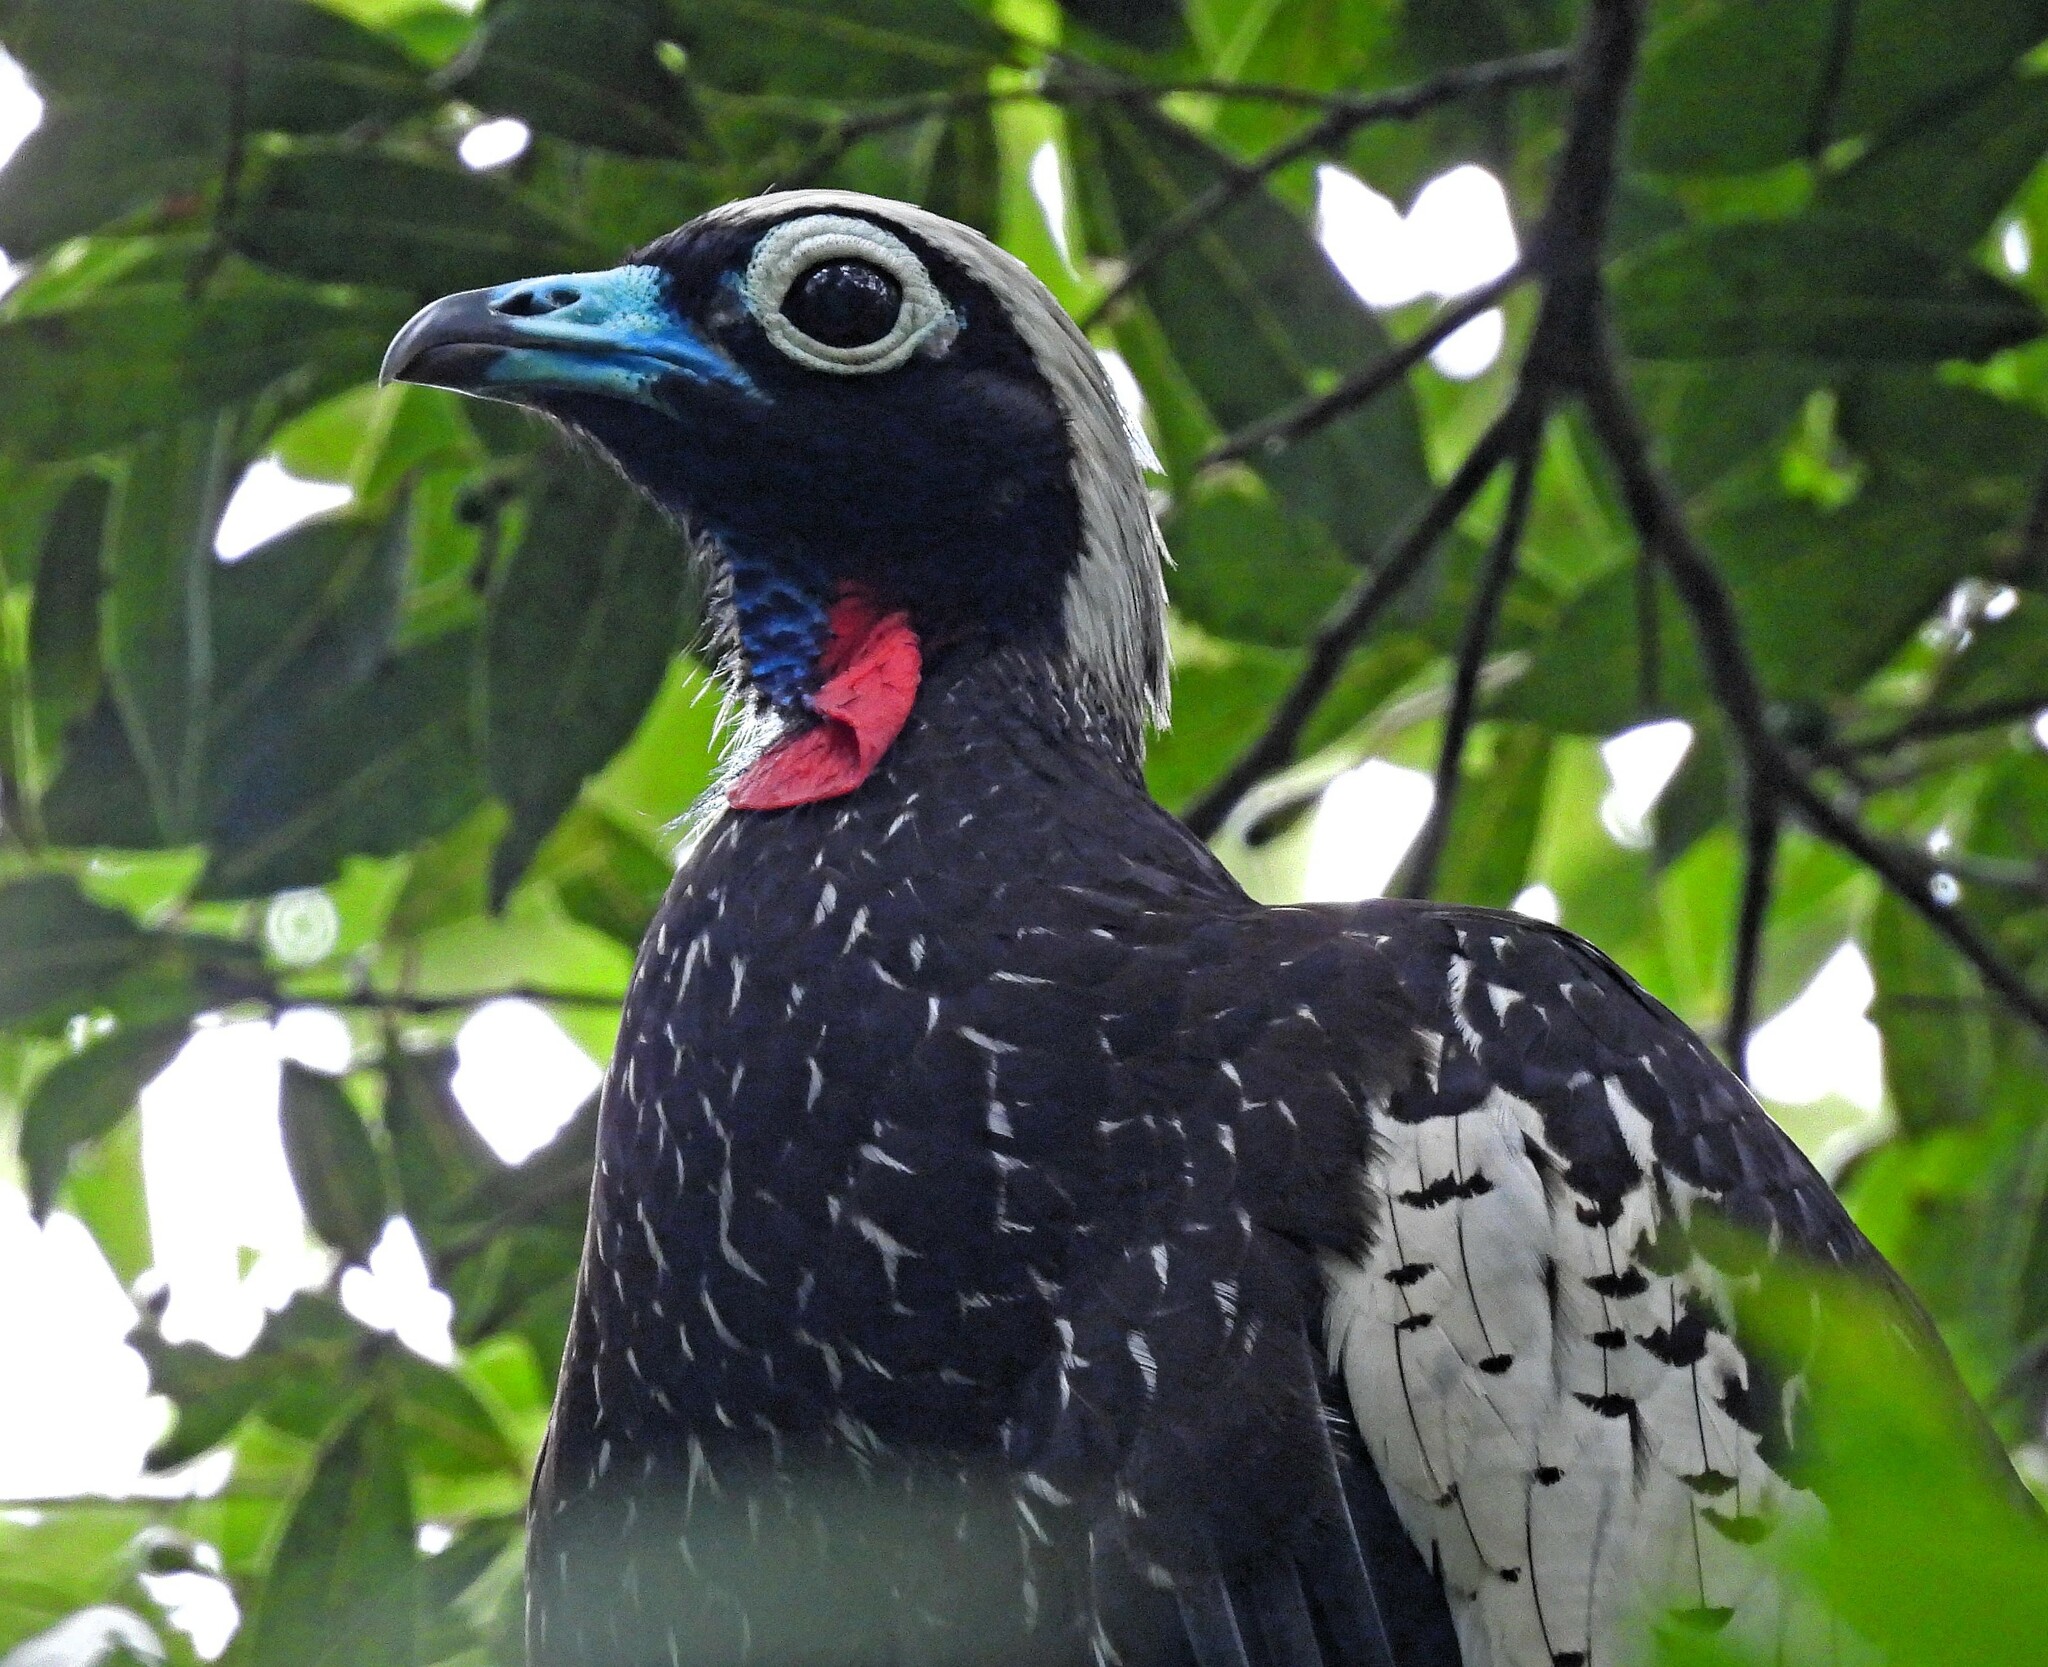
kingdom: Animalia
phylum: Chordata
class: Aves
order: Galliformes
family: Cracidae
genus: Pipile
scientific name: Pipile jacutinga
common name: Black-fronted piping-guan
